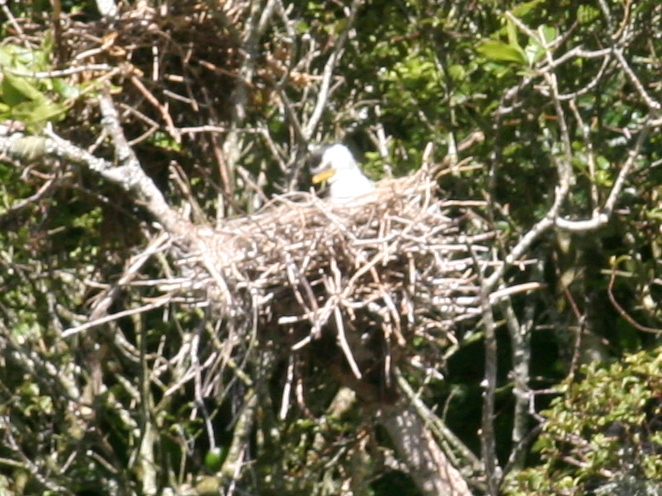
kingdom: Animalia
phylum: Chordata
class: Aves
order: Suliformes
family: Phalacrocoracidae
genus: Microcarbo
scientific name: Microcarbo melanoleucos
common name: Little pied cormorant
